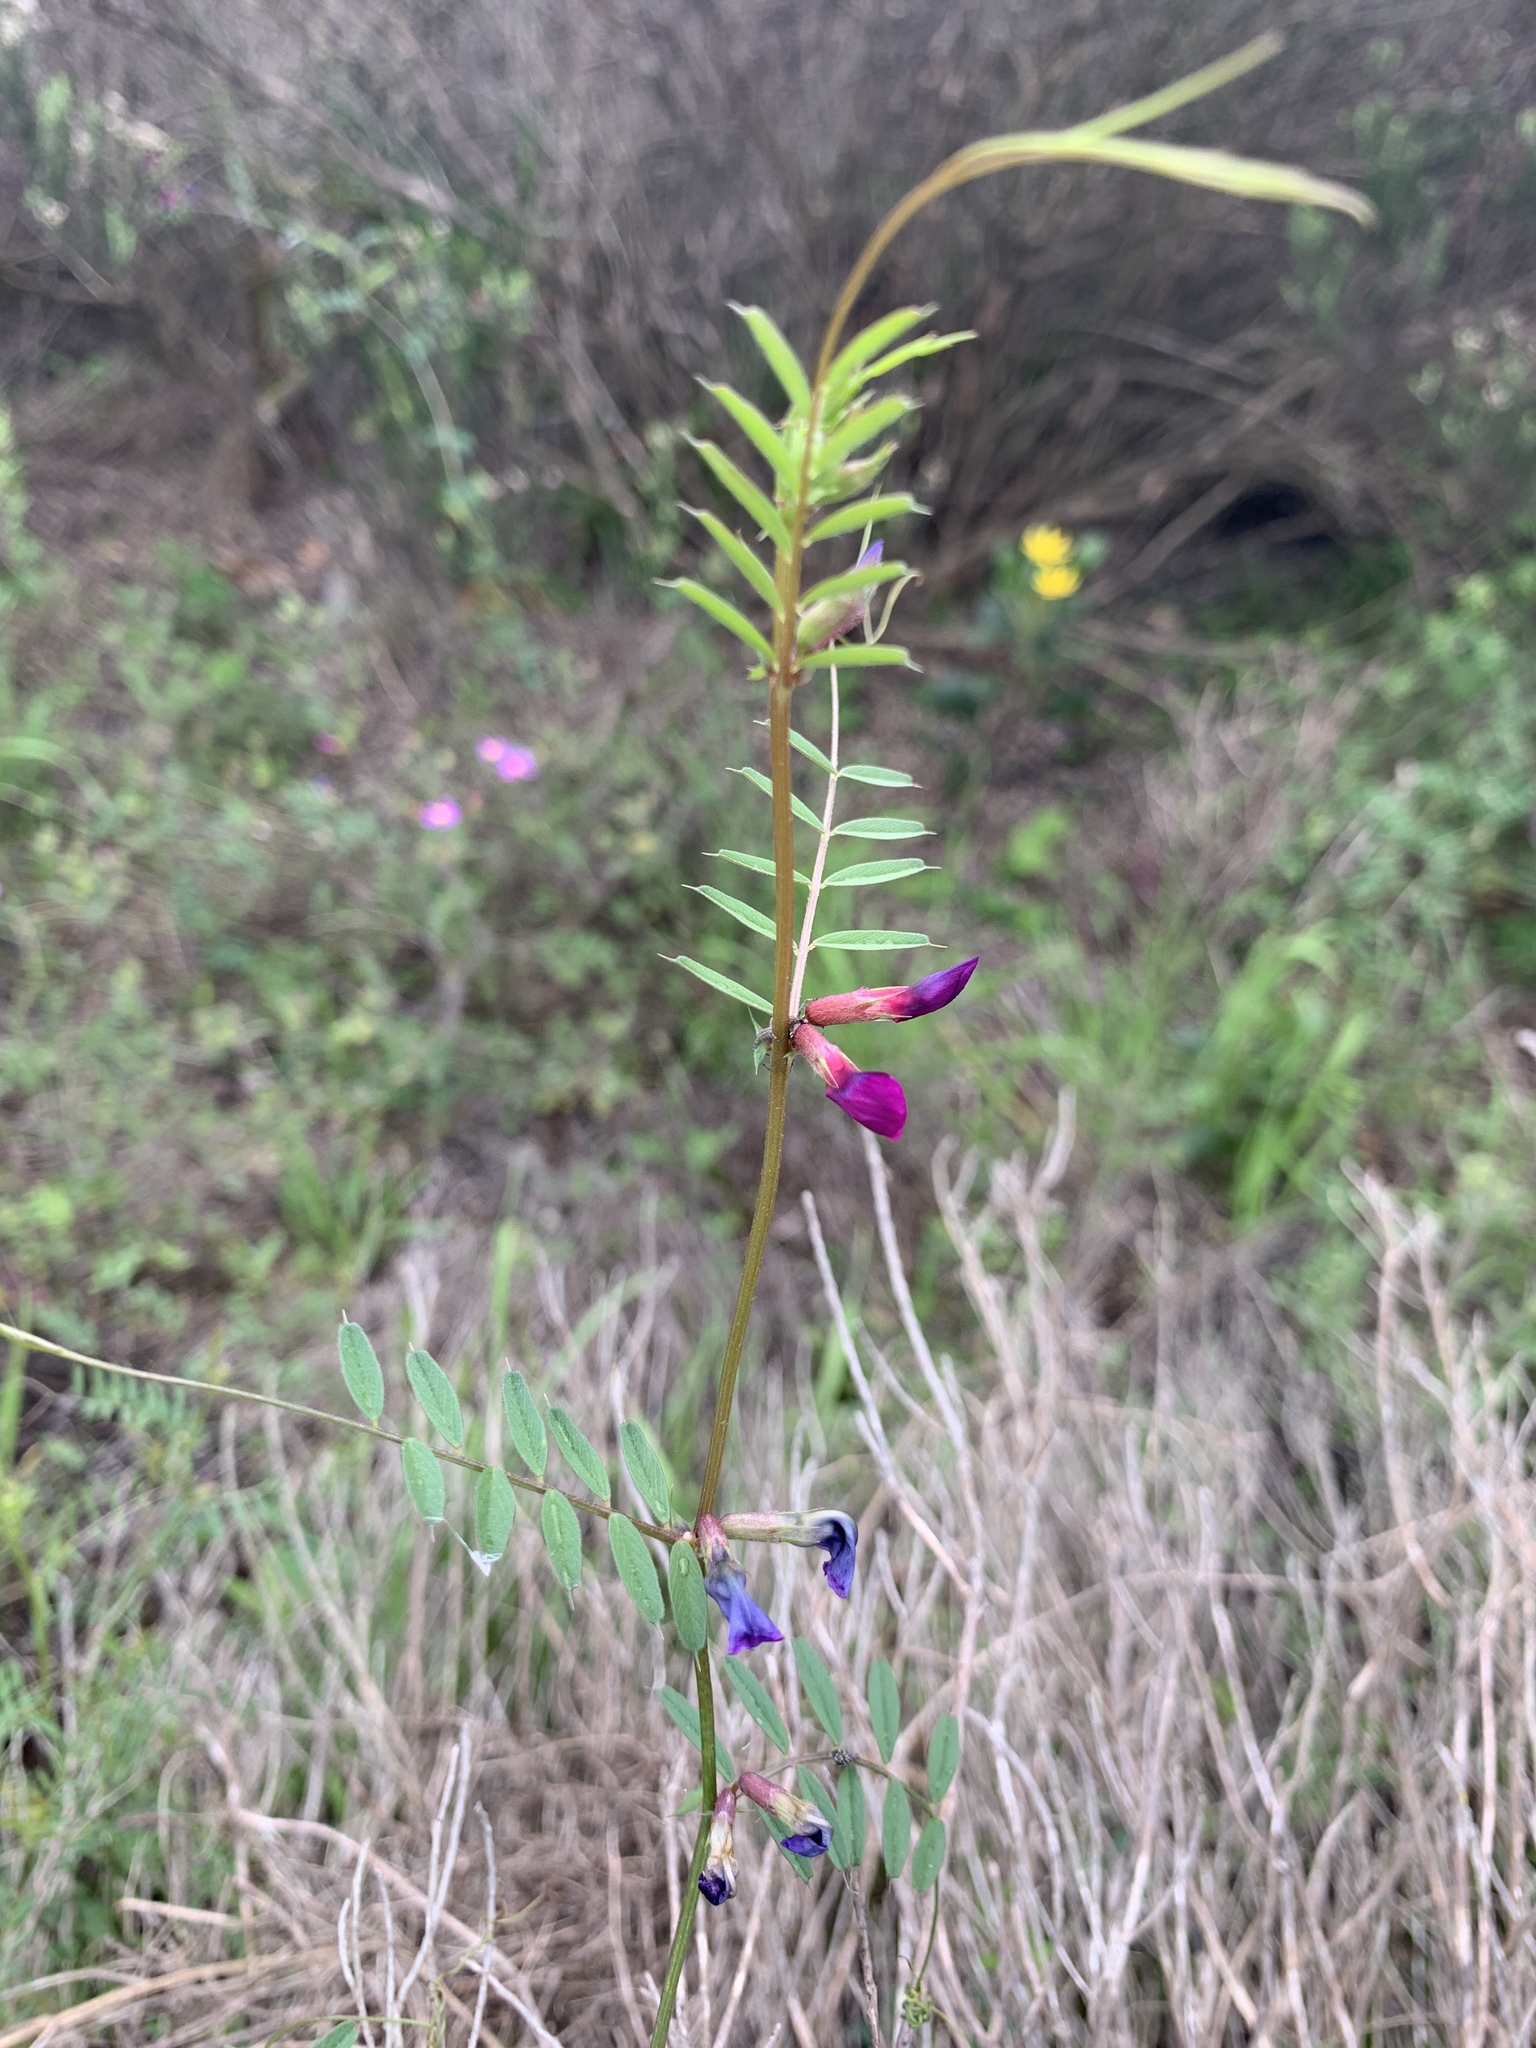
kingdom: Plantae
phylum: Tracheophyta
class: Magnoliopsida
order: Fabales
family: Fabaceae
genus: Vicia
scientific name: Vicia sativa
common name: Garden vetch
